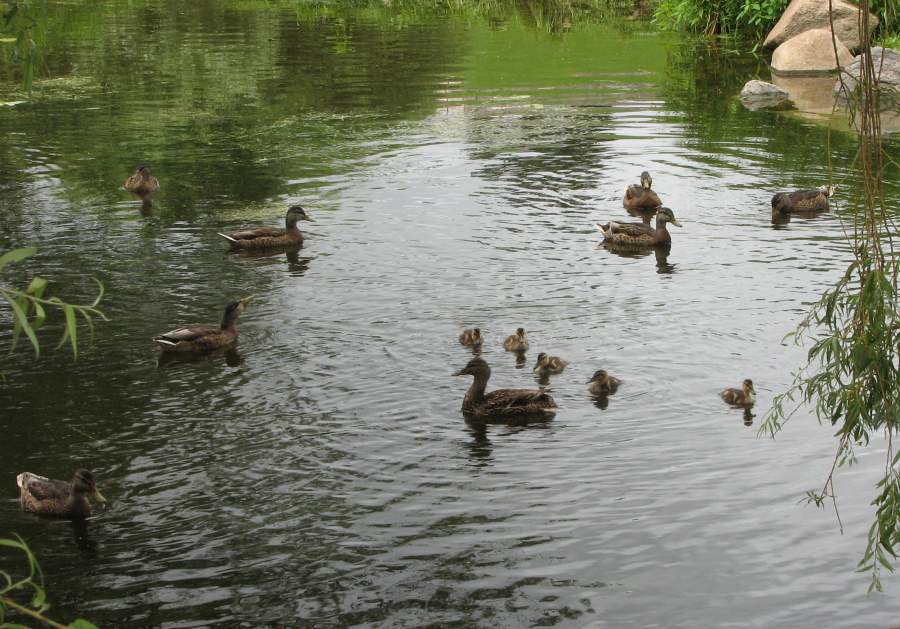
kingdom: Animalia
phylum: Chordata
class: Aves
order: Anseriformes
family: Anatidae
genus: Anas
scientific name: Anas platyrhynchos
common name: Mallard
